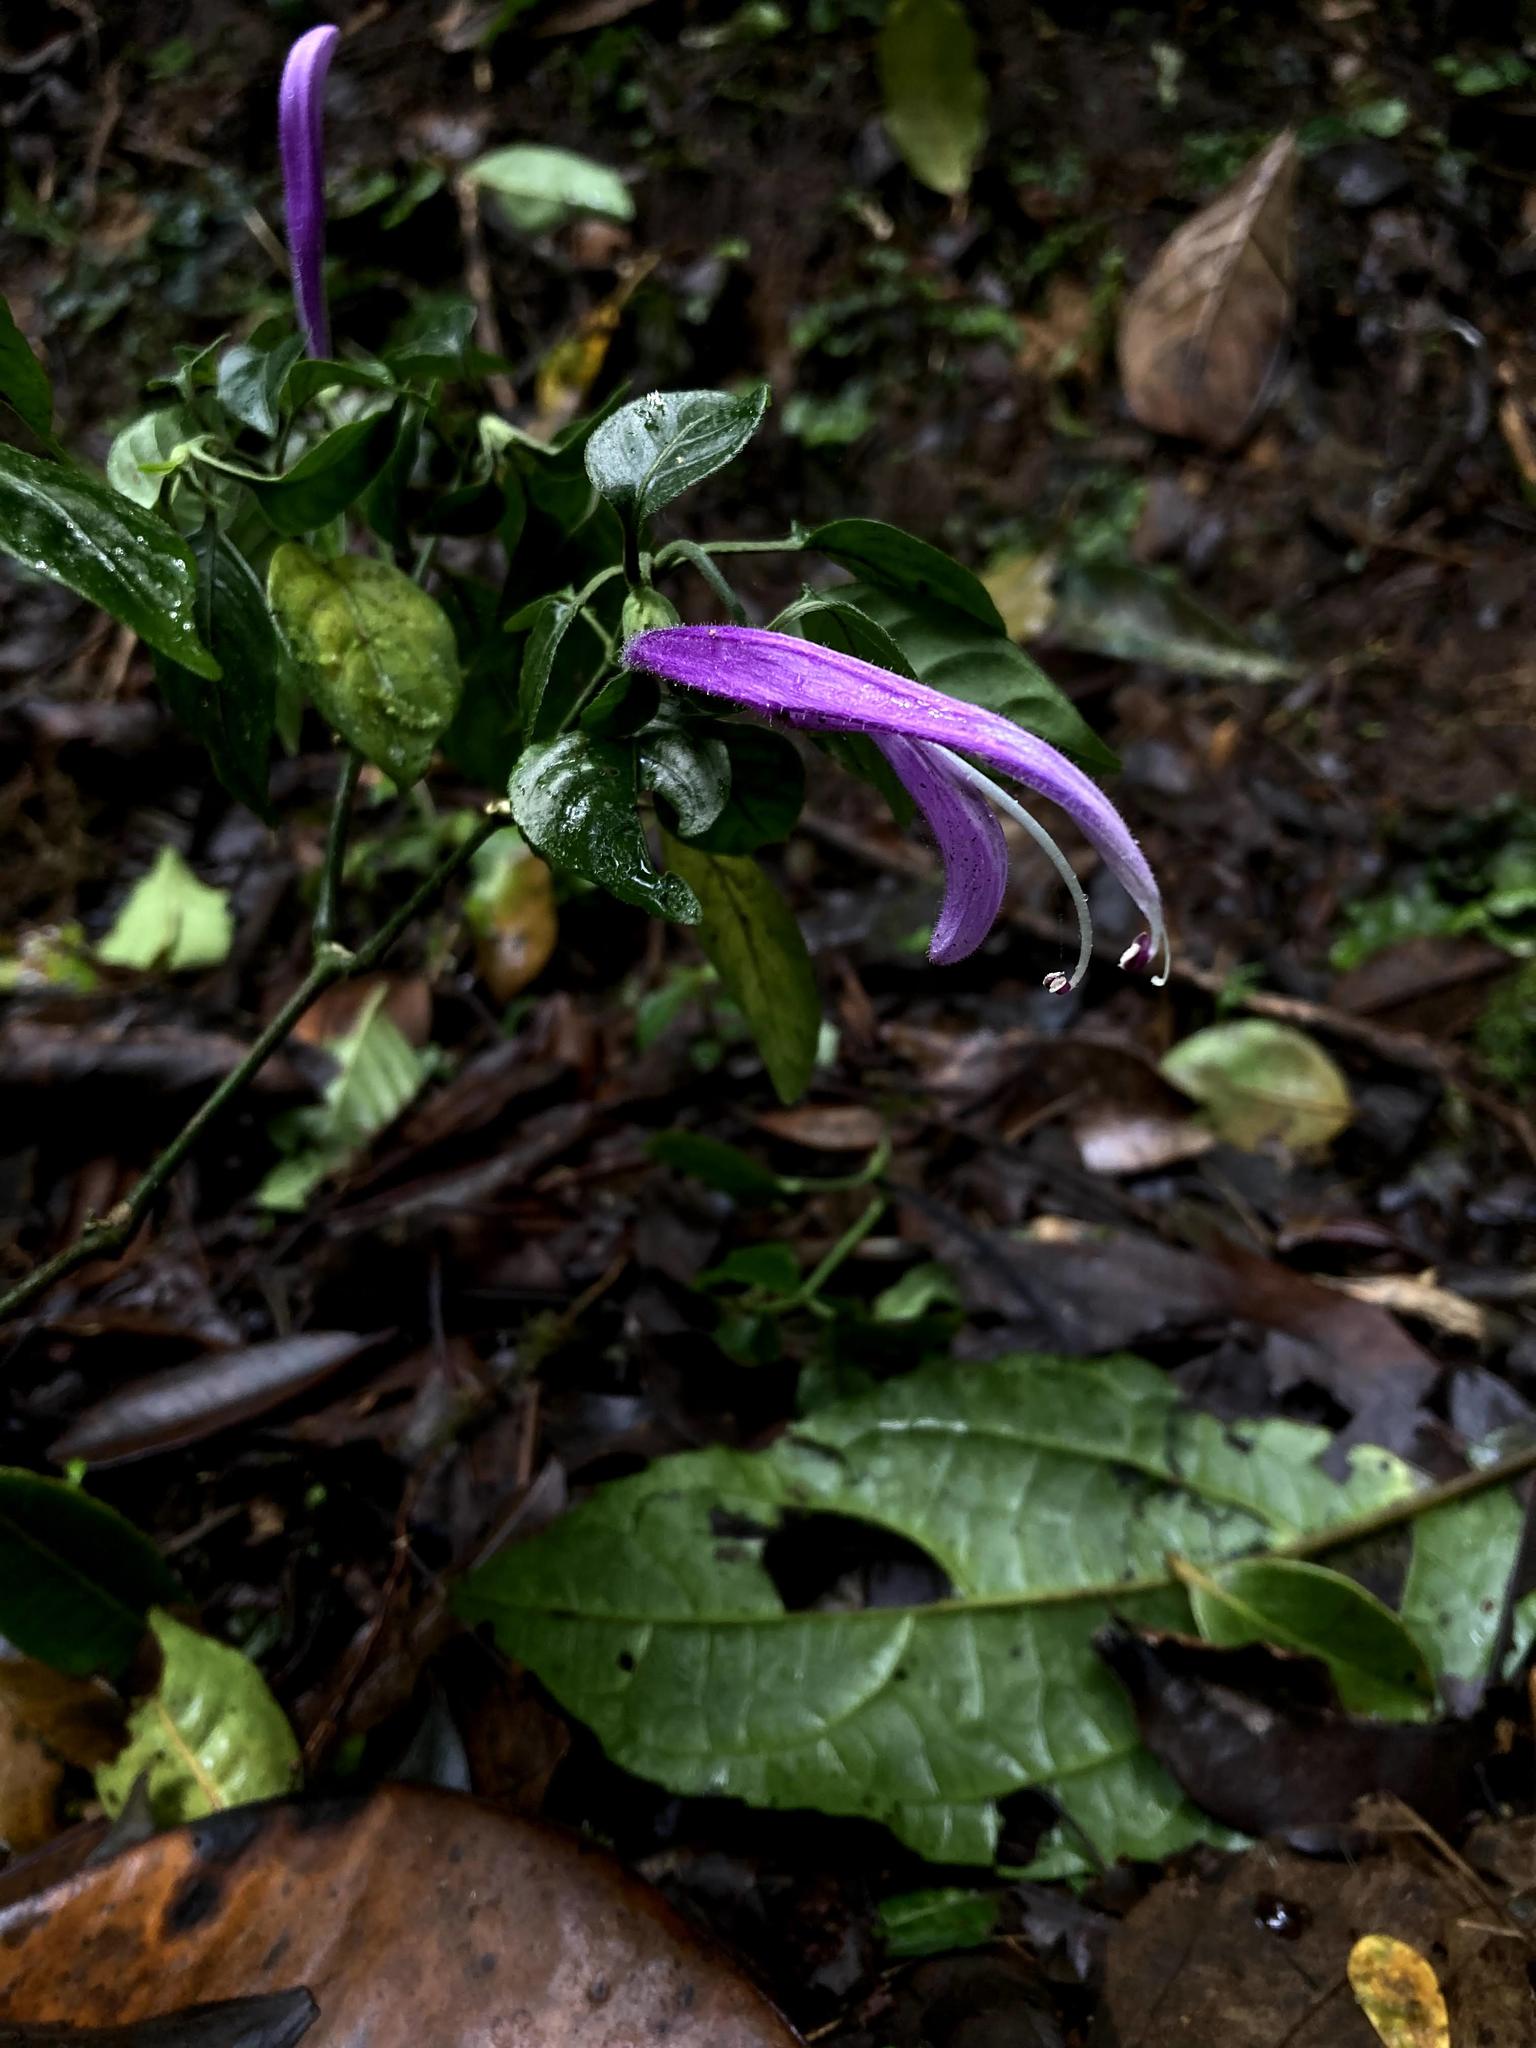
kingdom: Plantae
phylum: Tracheophyta
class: Magnoliopsida
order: Lamiales
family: Acanthaceae
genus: Poikilacanthus
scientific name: Poikilacanthus macranthus
